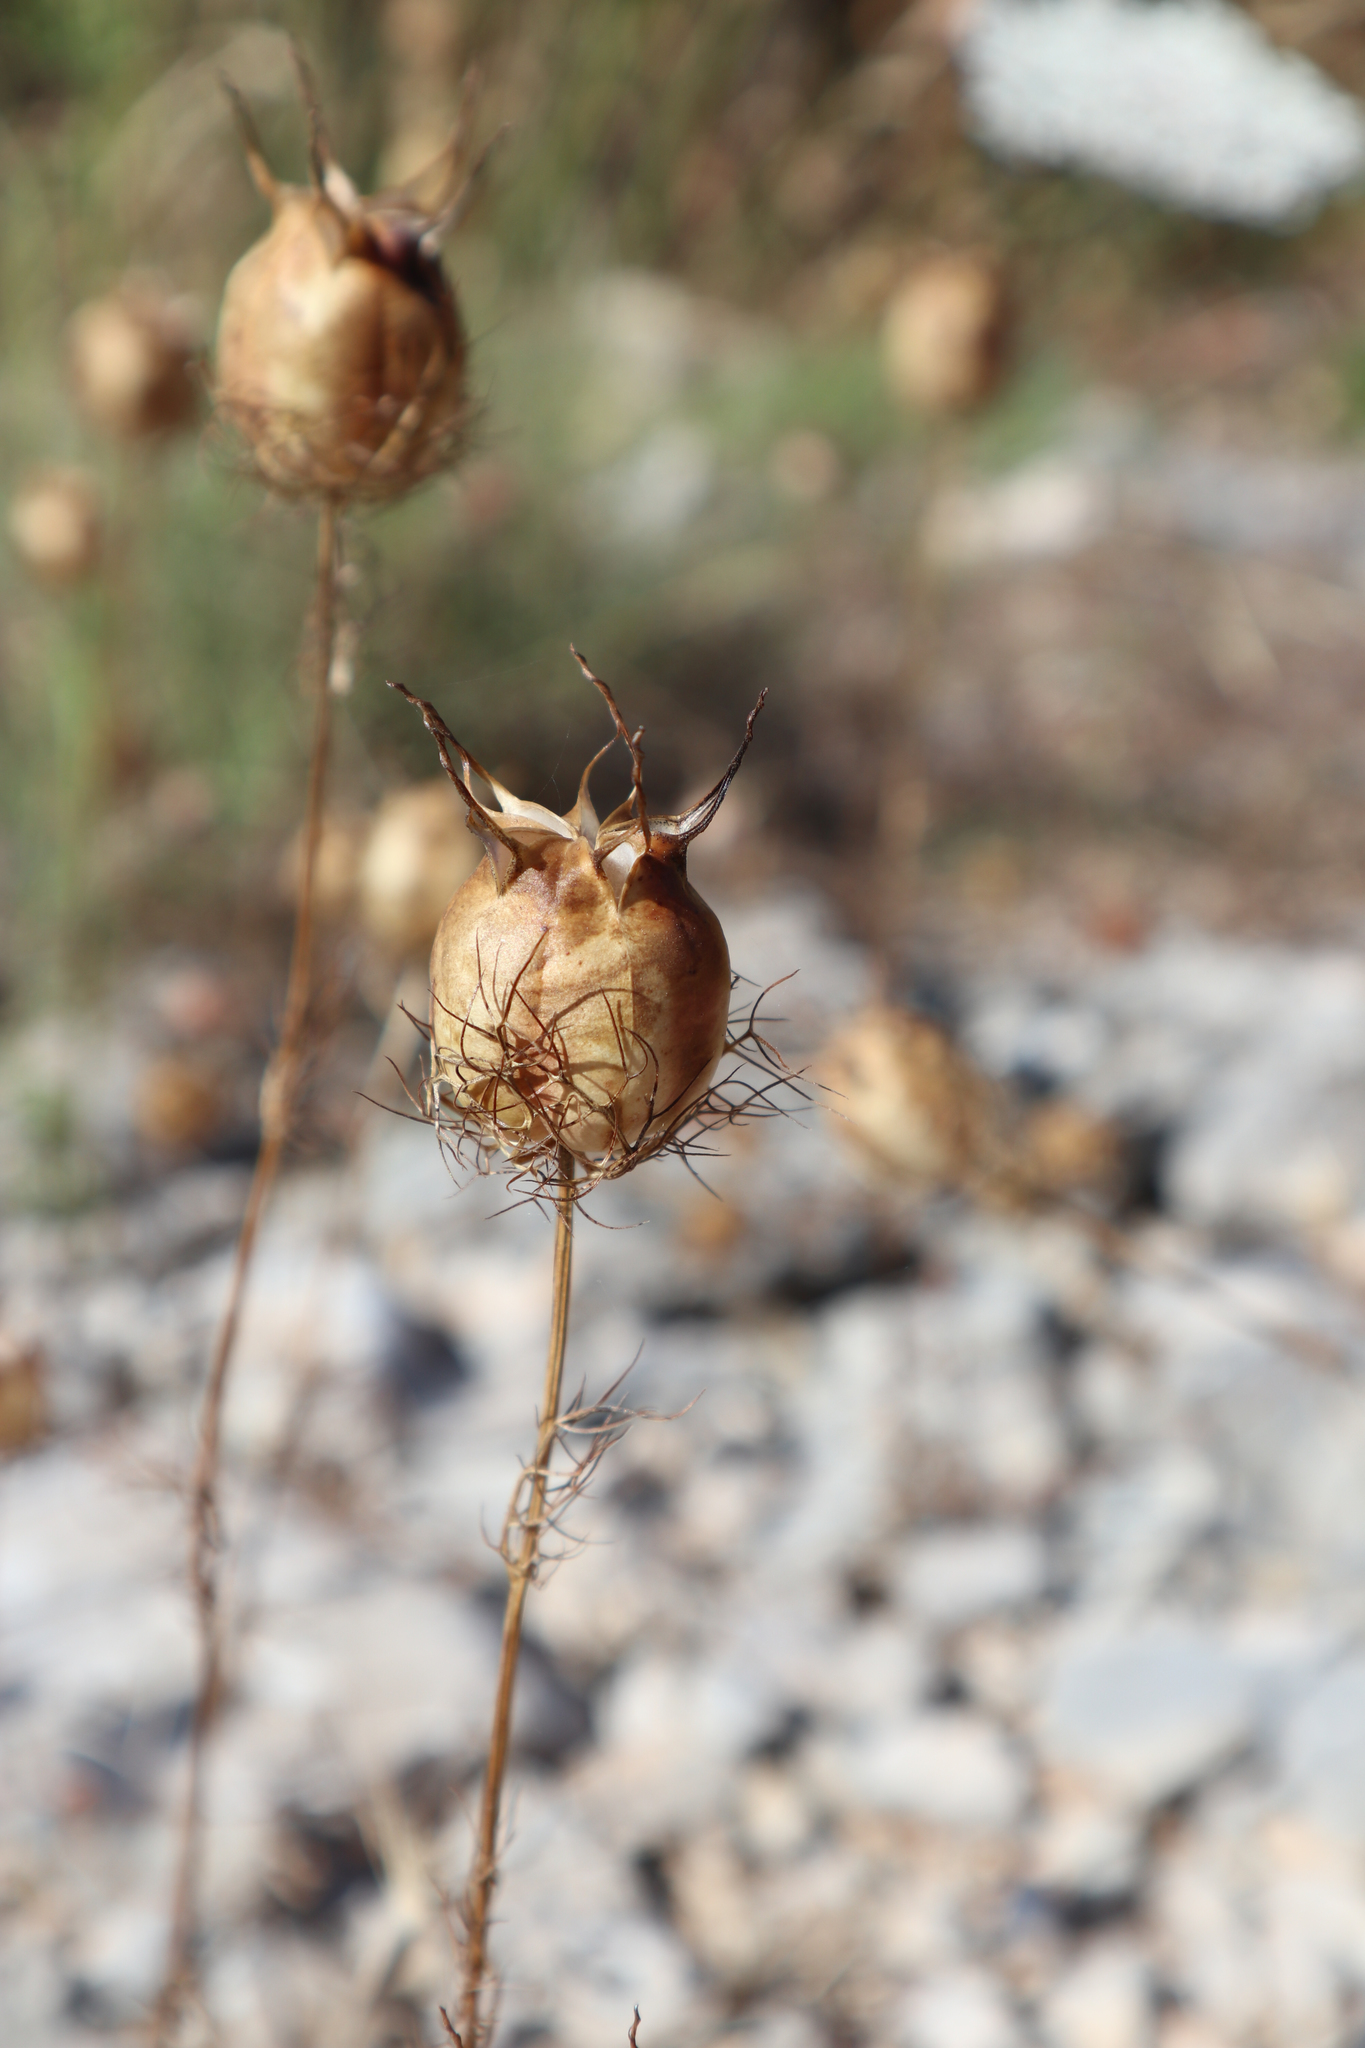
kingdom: Plantae
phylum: Tracheophyta
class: Magnoliopsida
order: Ranunculales
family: Ranunculaceae
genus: Nigella
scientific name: Nigella damascena
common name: Love-in-a-mist
